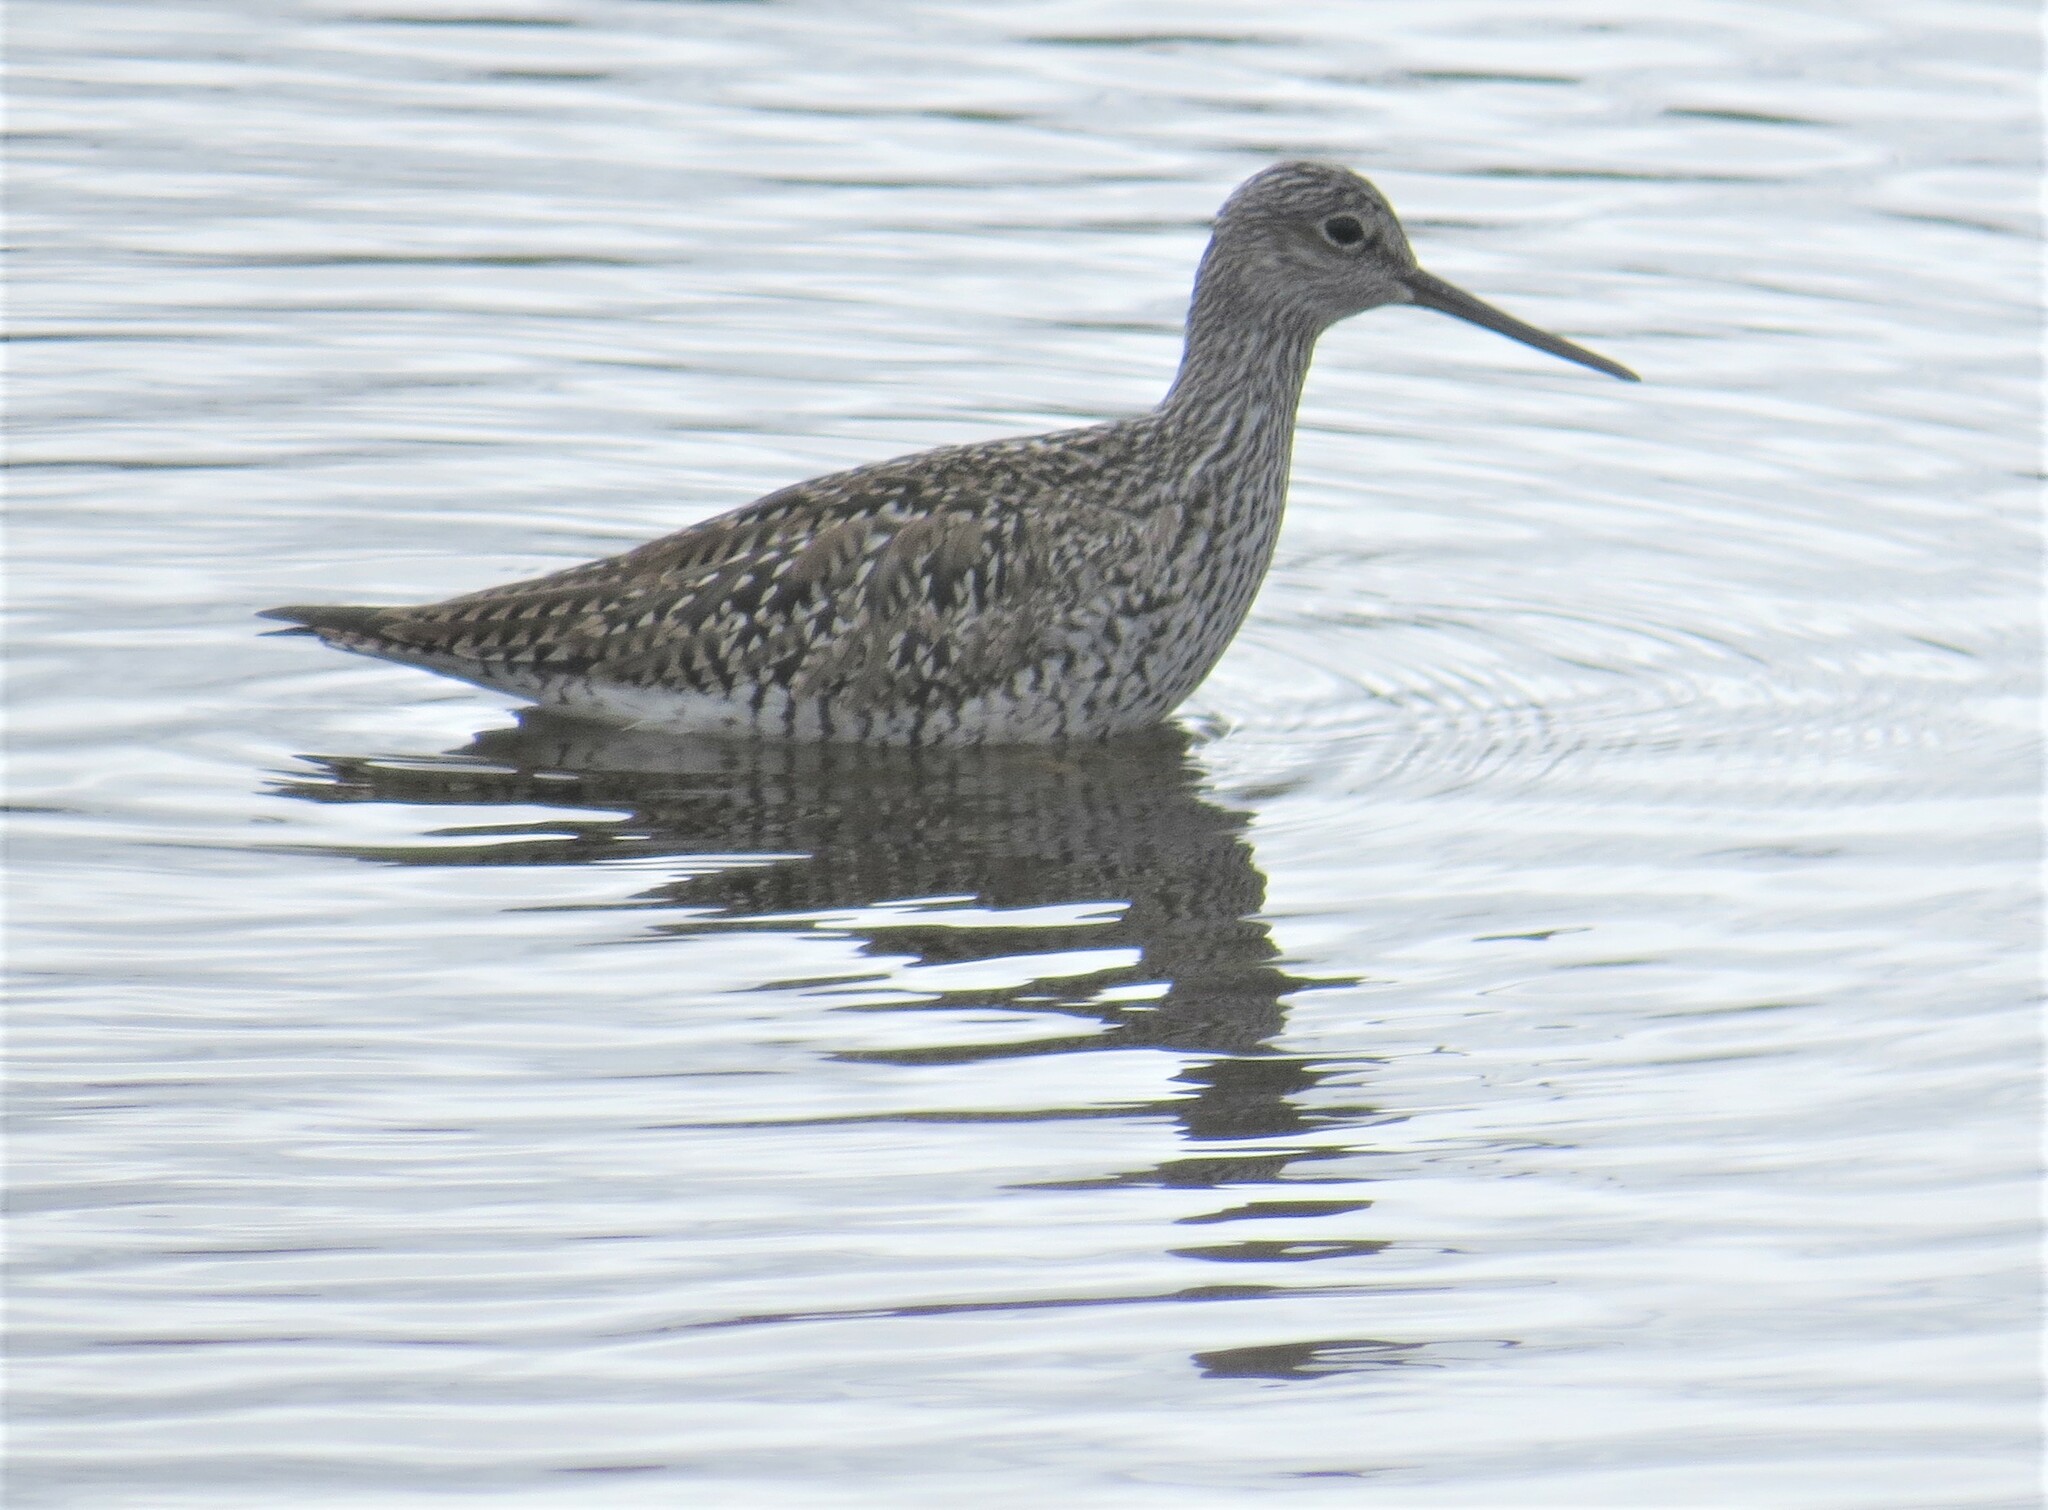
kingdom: Animalia
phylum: Chordata
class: Aves
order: Charadriiformes
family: Scolopacidae
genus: Tringa
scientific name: Tringa flavipes
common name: Lesser yellowlegs
